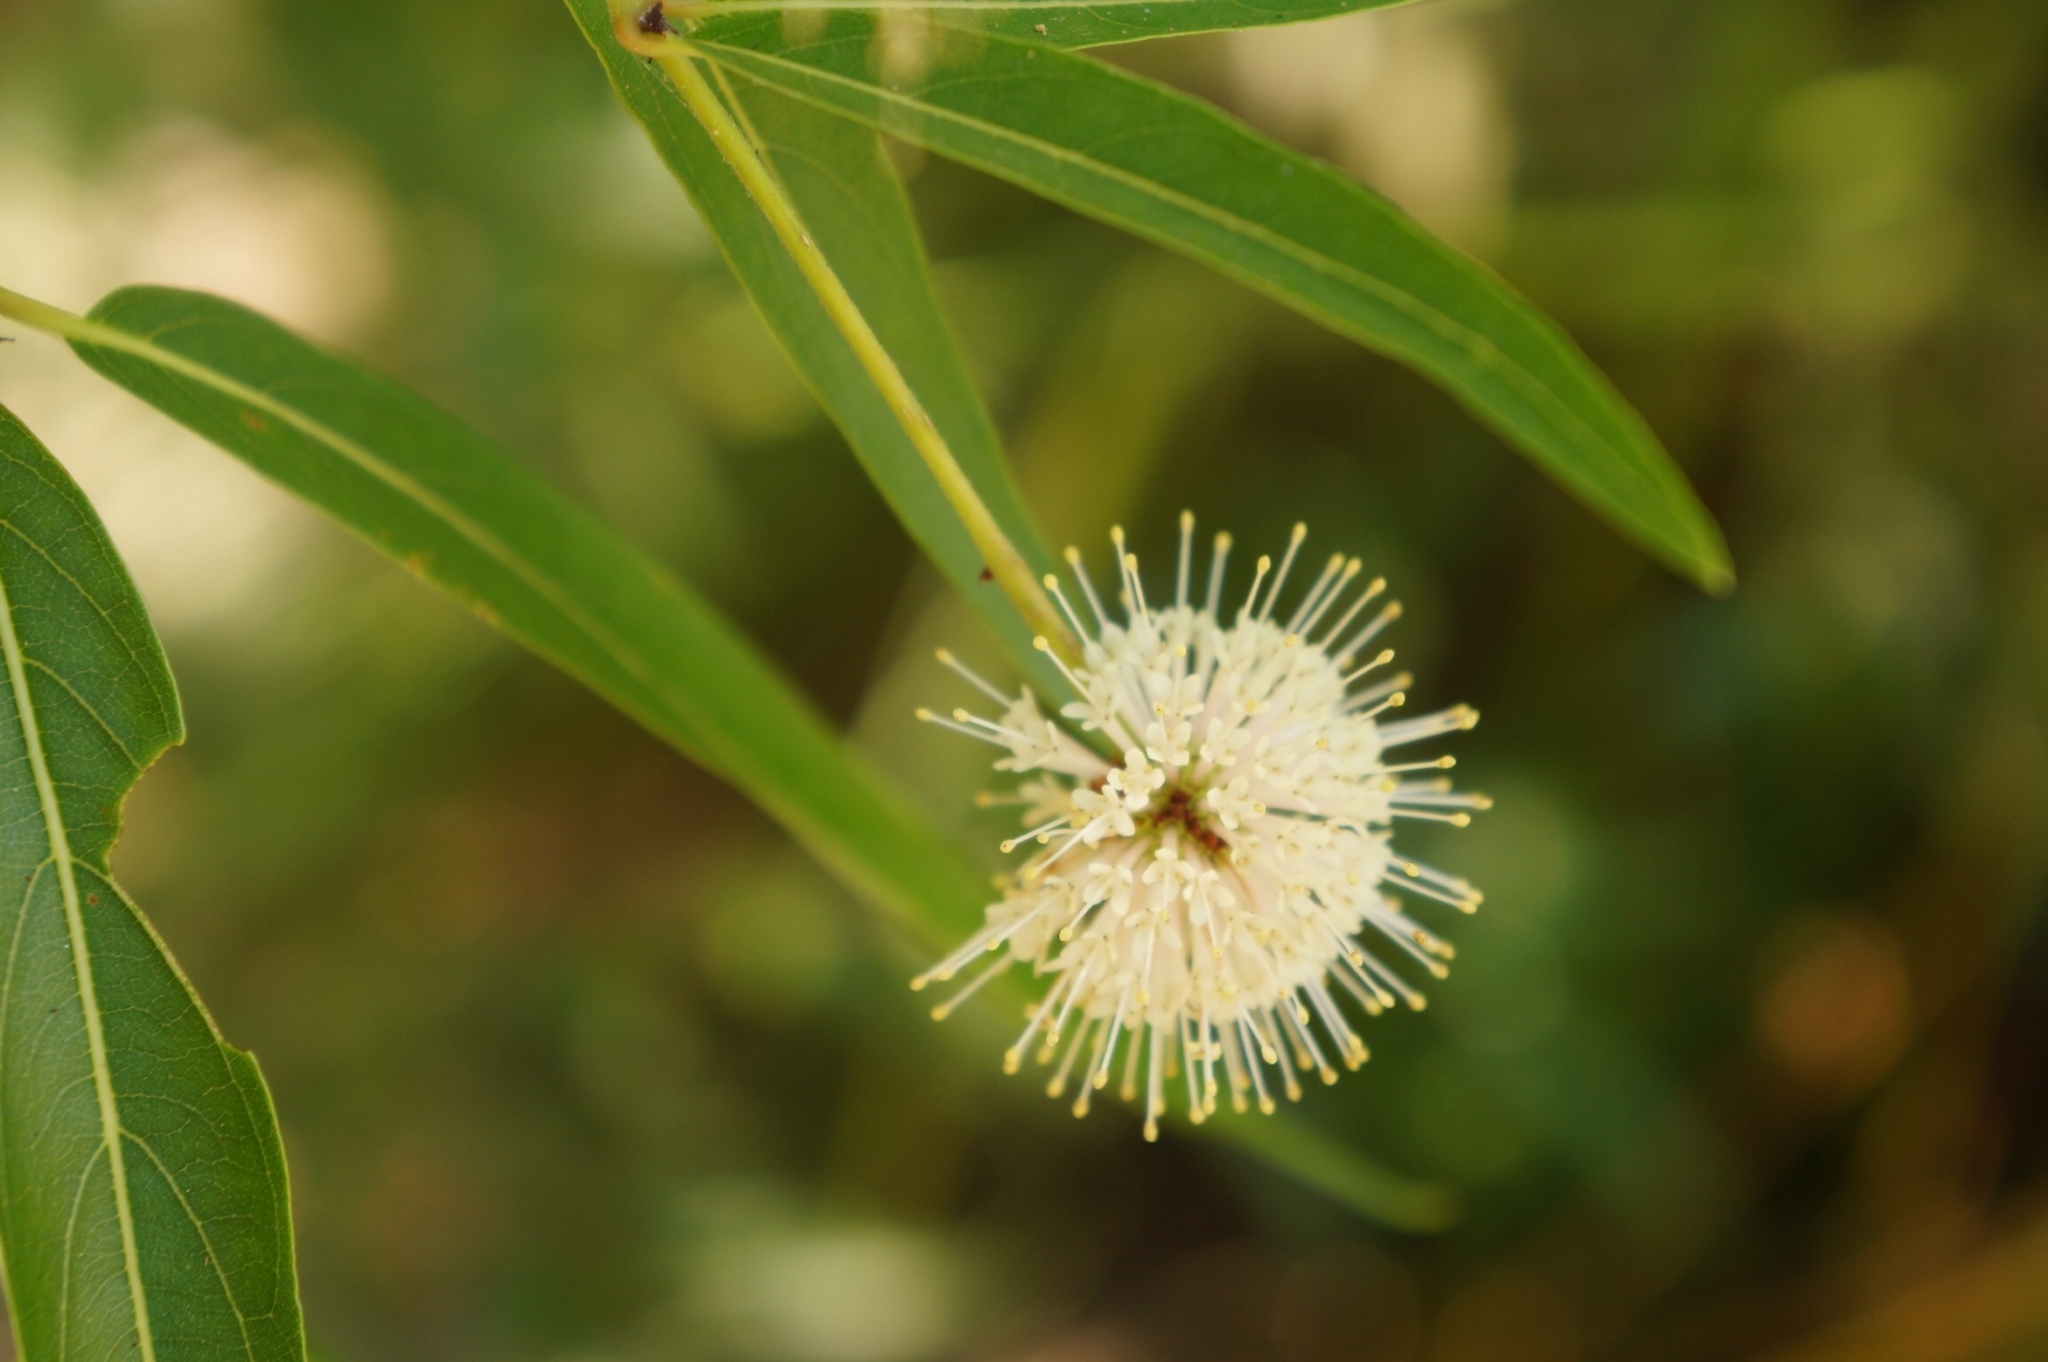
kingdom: Plantae
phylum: Tracheophyta
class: Magnoliopsida
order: Gentianales
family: Rubiaceae
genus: Cephalanthus
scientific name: Cephalanthus salicifolius
